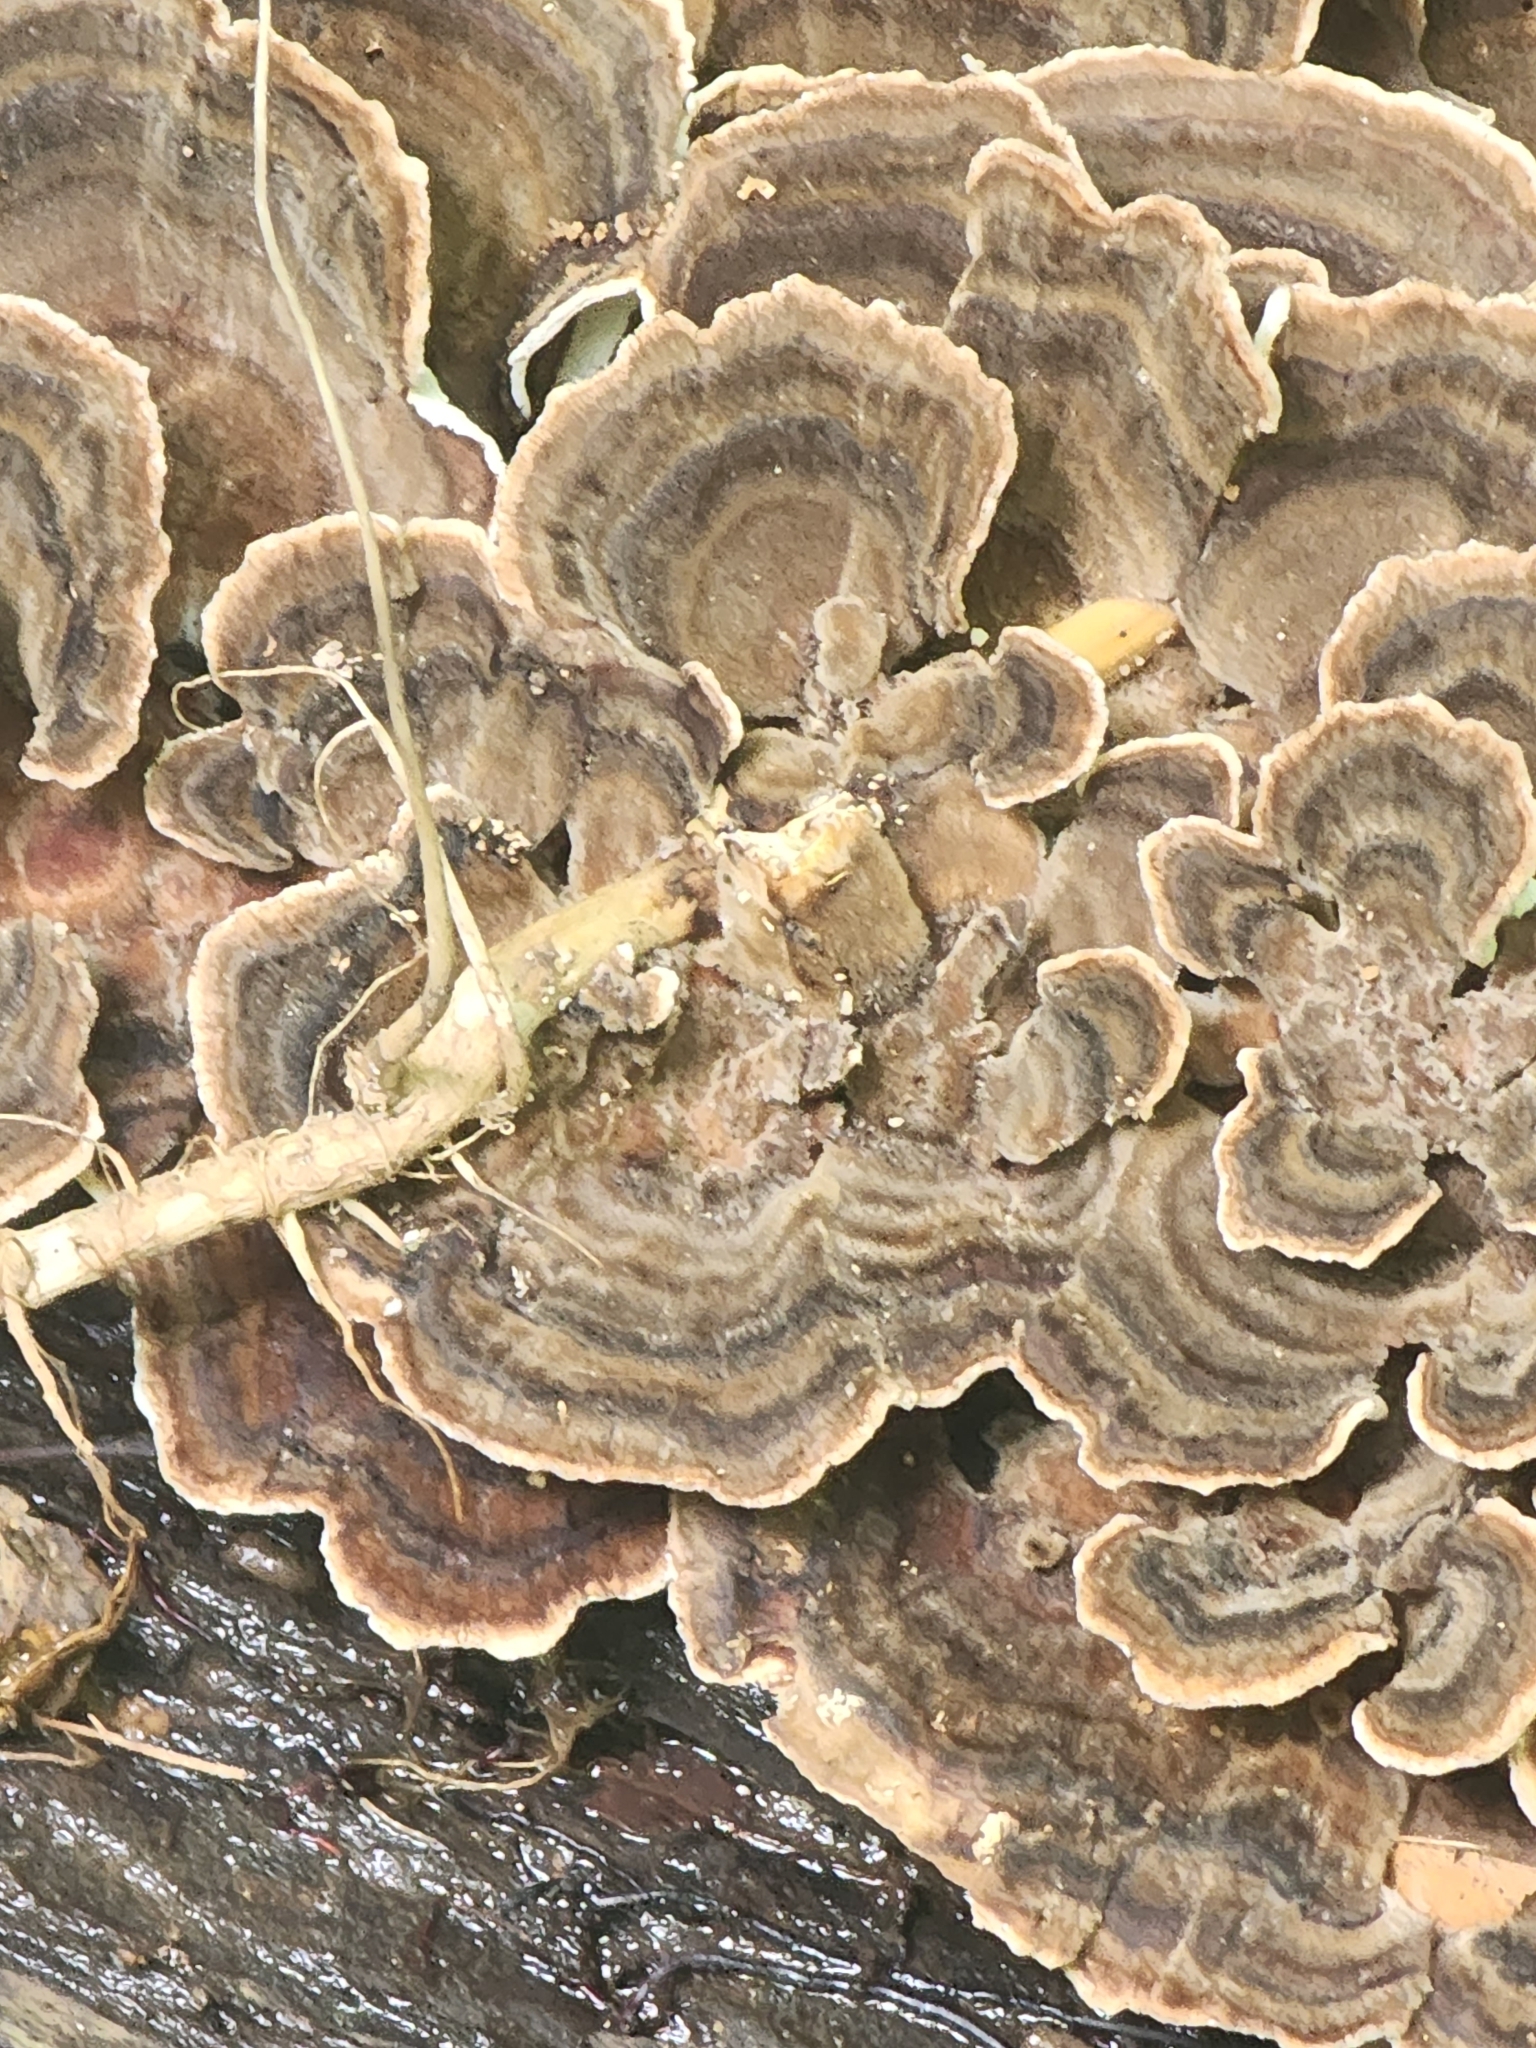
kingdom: Fungi
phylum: Basidiomycota
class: Agaricomycetes
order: Polyporales
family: Polyporaceae
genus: Trametes
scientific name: Trametes versicolor
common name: Turkeytail
